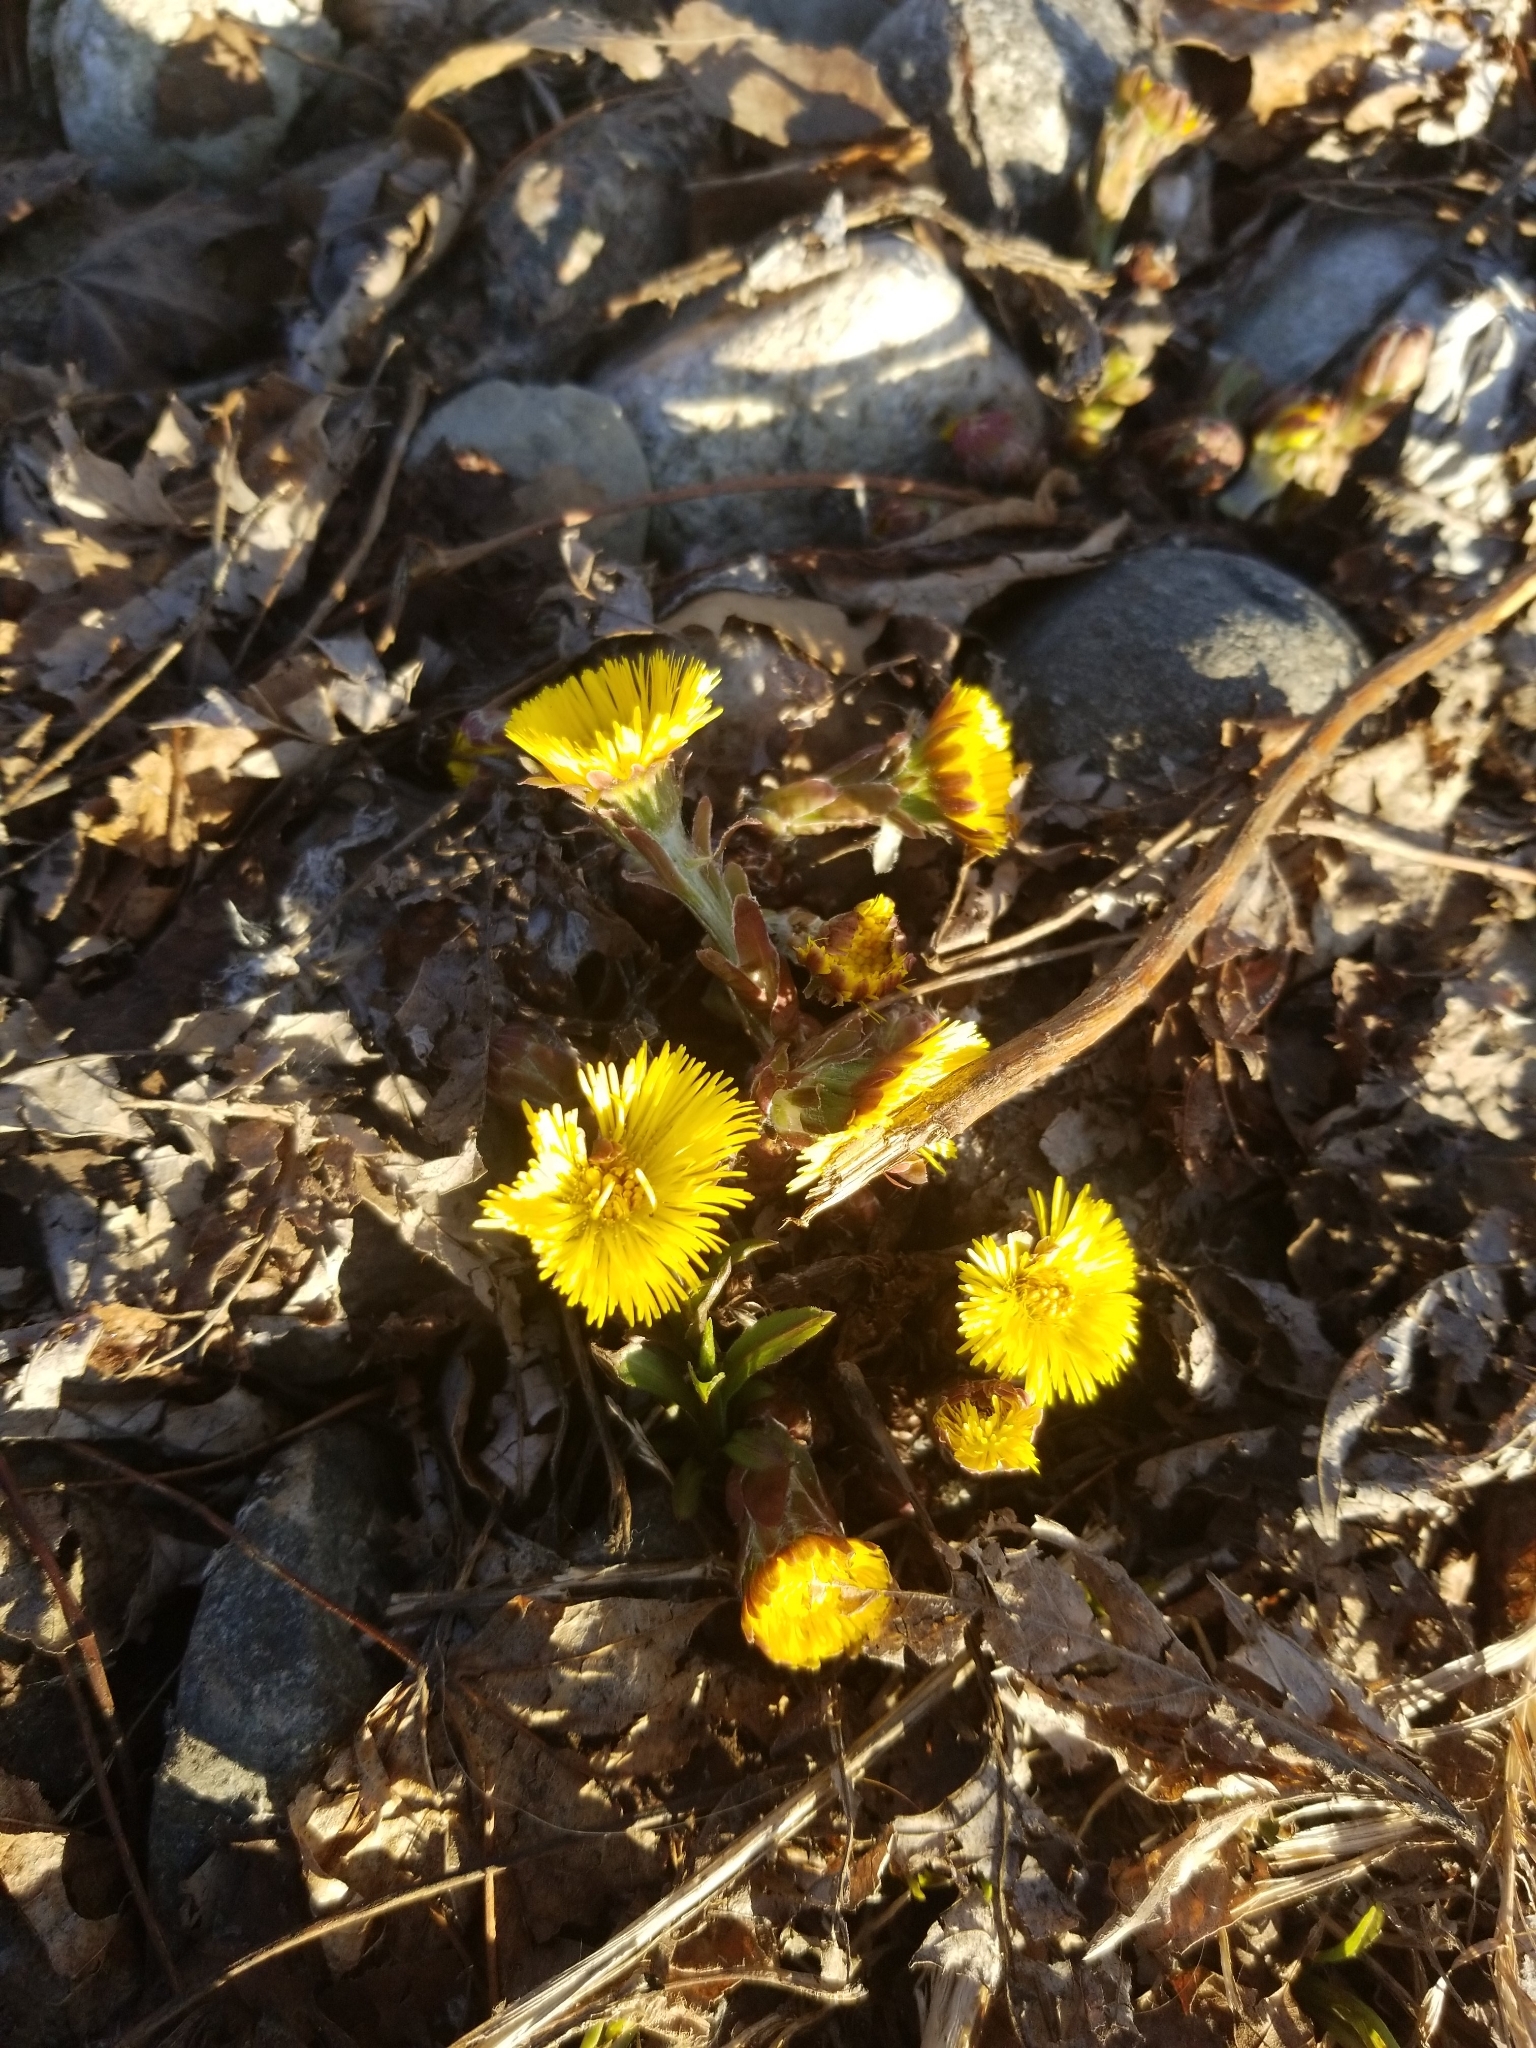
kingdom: Plantae
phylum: Tracheophyta
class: Magnoliopsida
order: Asterales
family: Asteraceae
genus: Tussilago
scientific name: Tussilago farfara
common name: Coltsfoot
